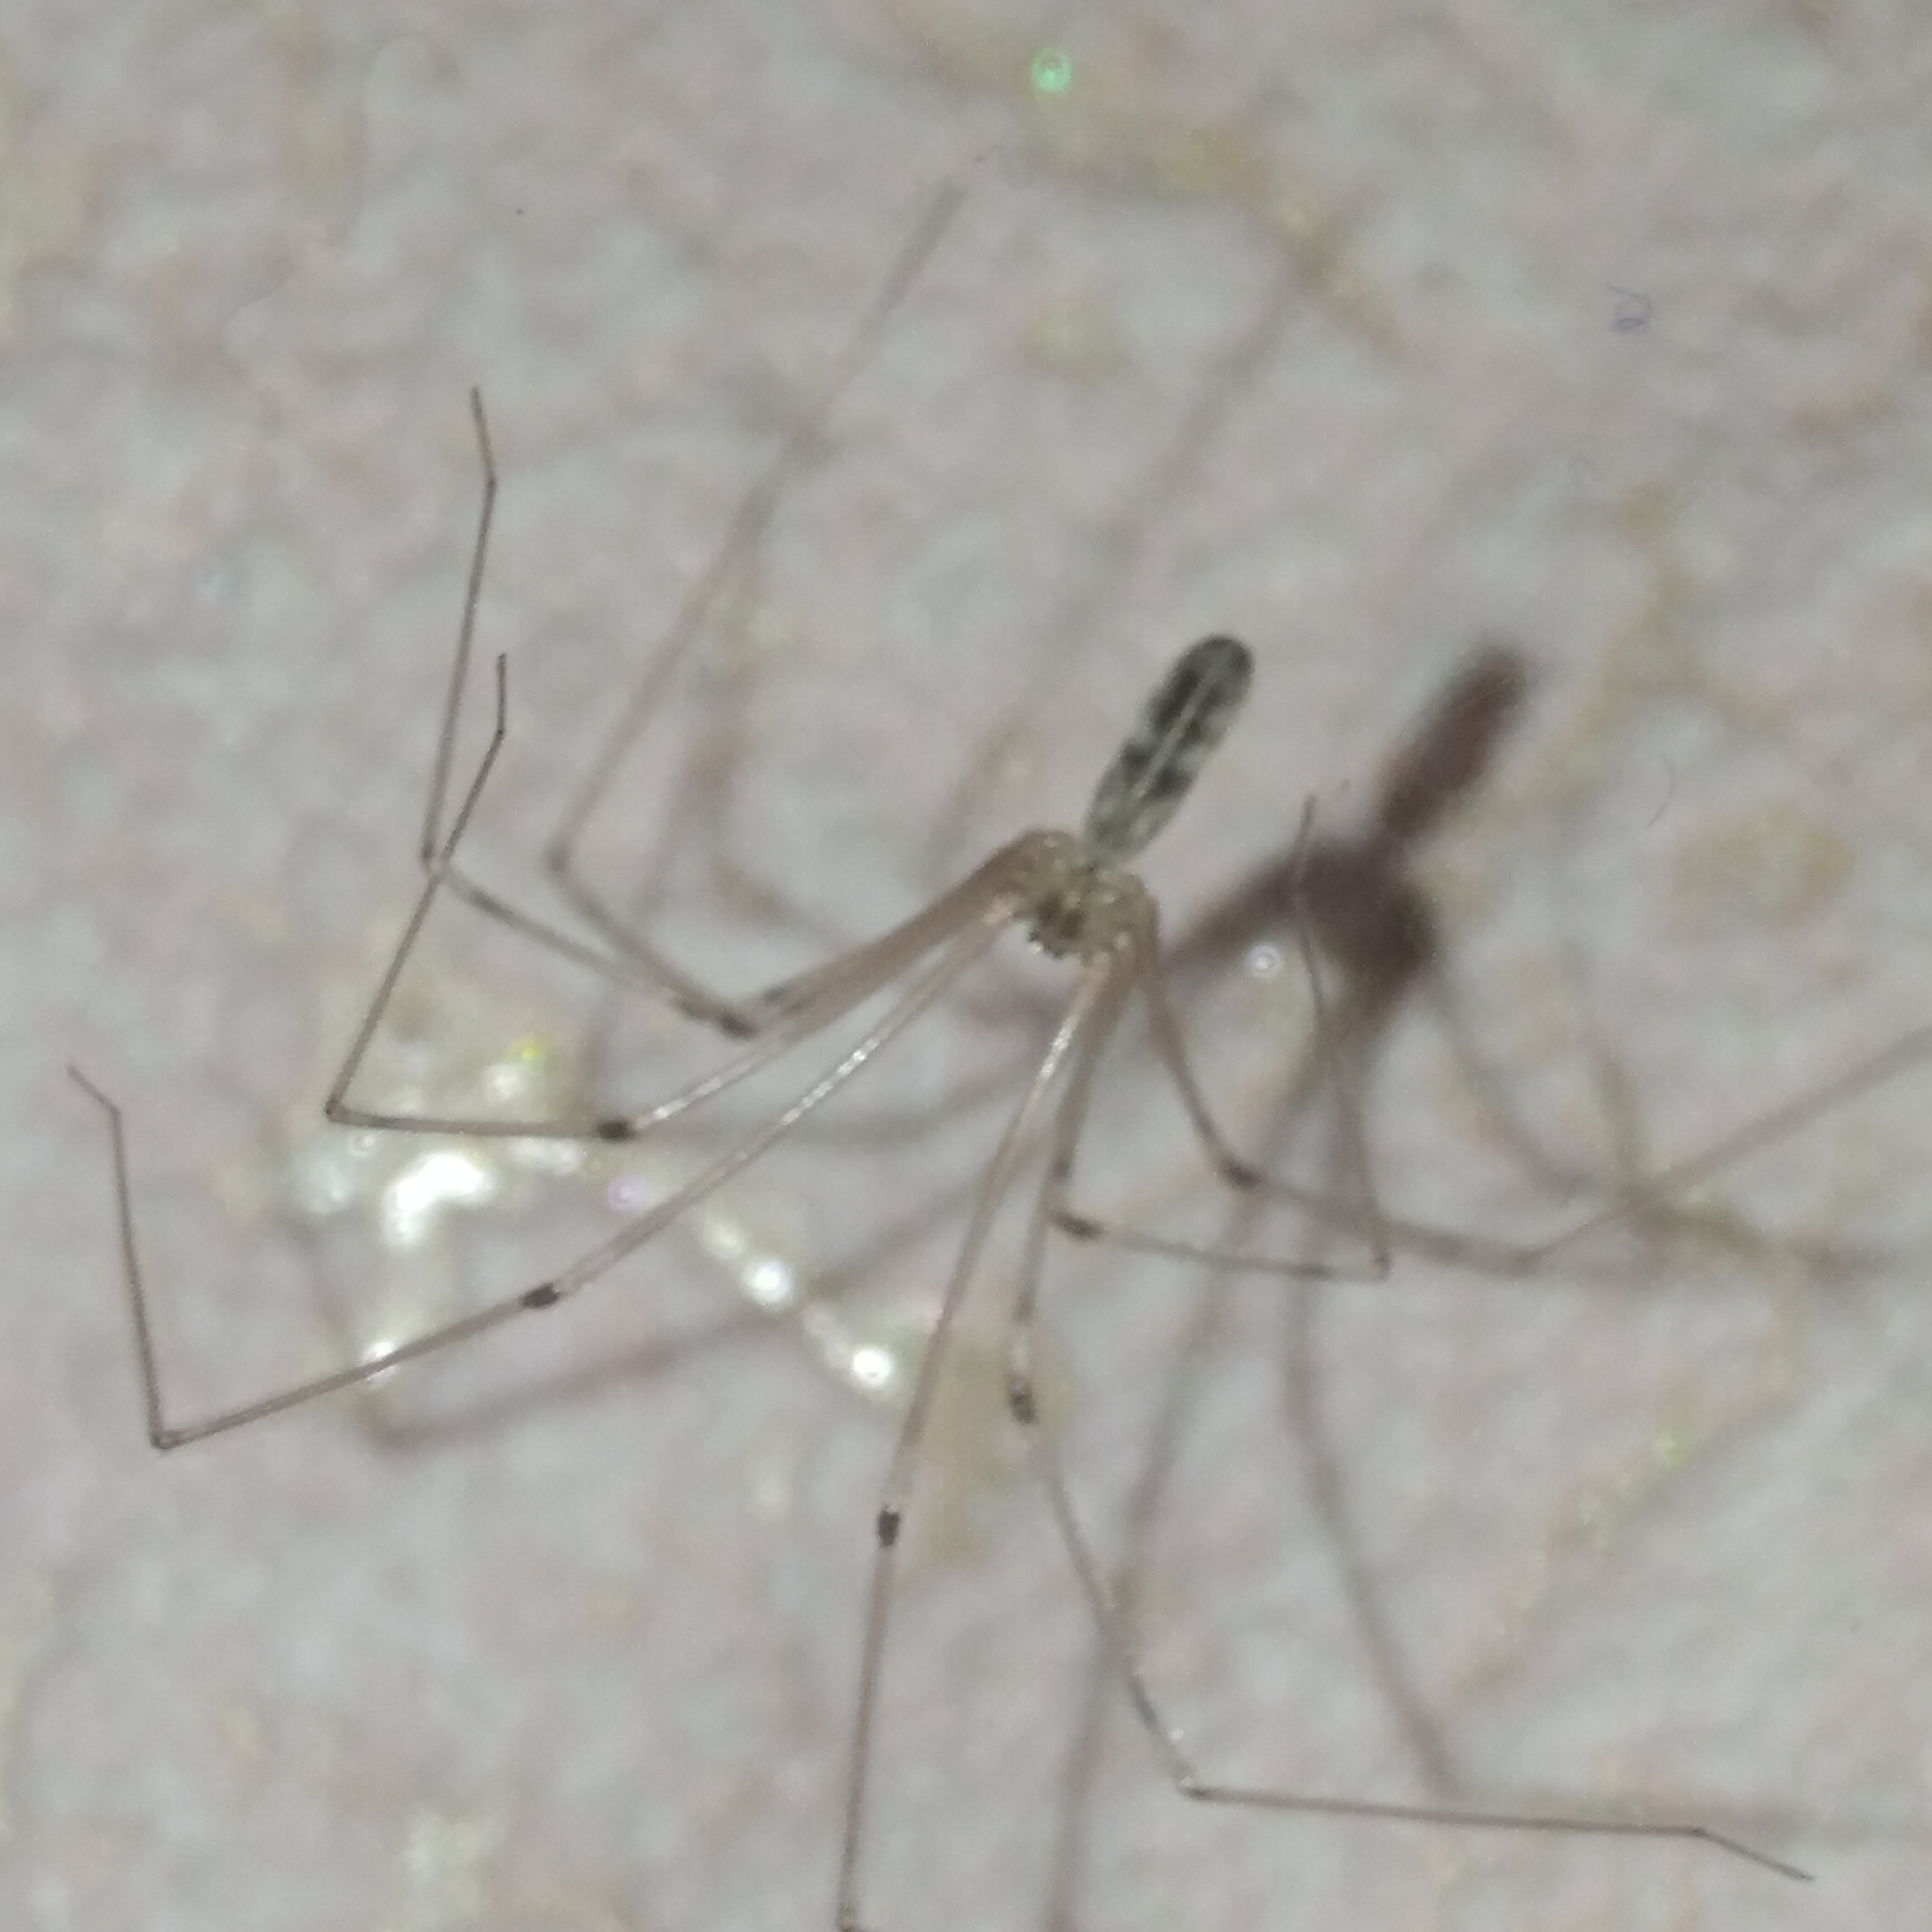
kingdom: Animalia
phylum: Arthropoda
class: Arachnida
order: Araneae
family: Pholcidae
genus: Pholcus
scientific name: Pholcus phalangioides
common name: Longbodied cellar spider
